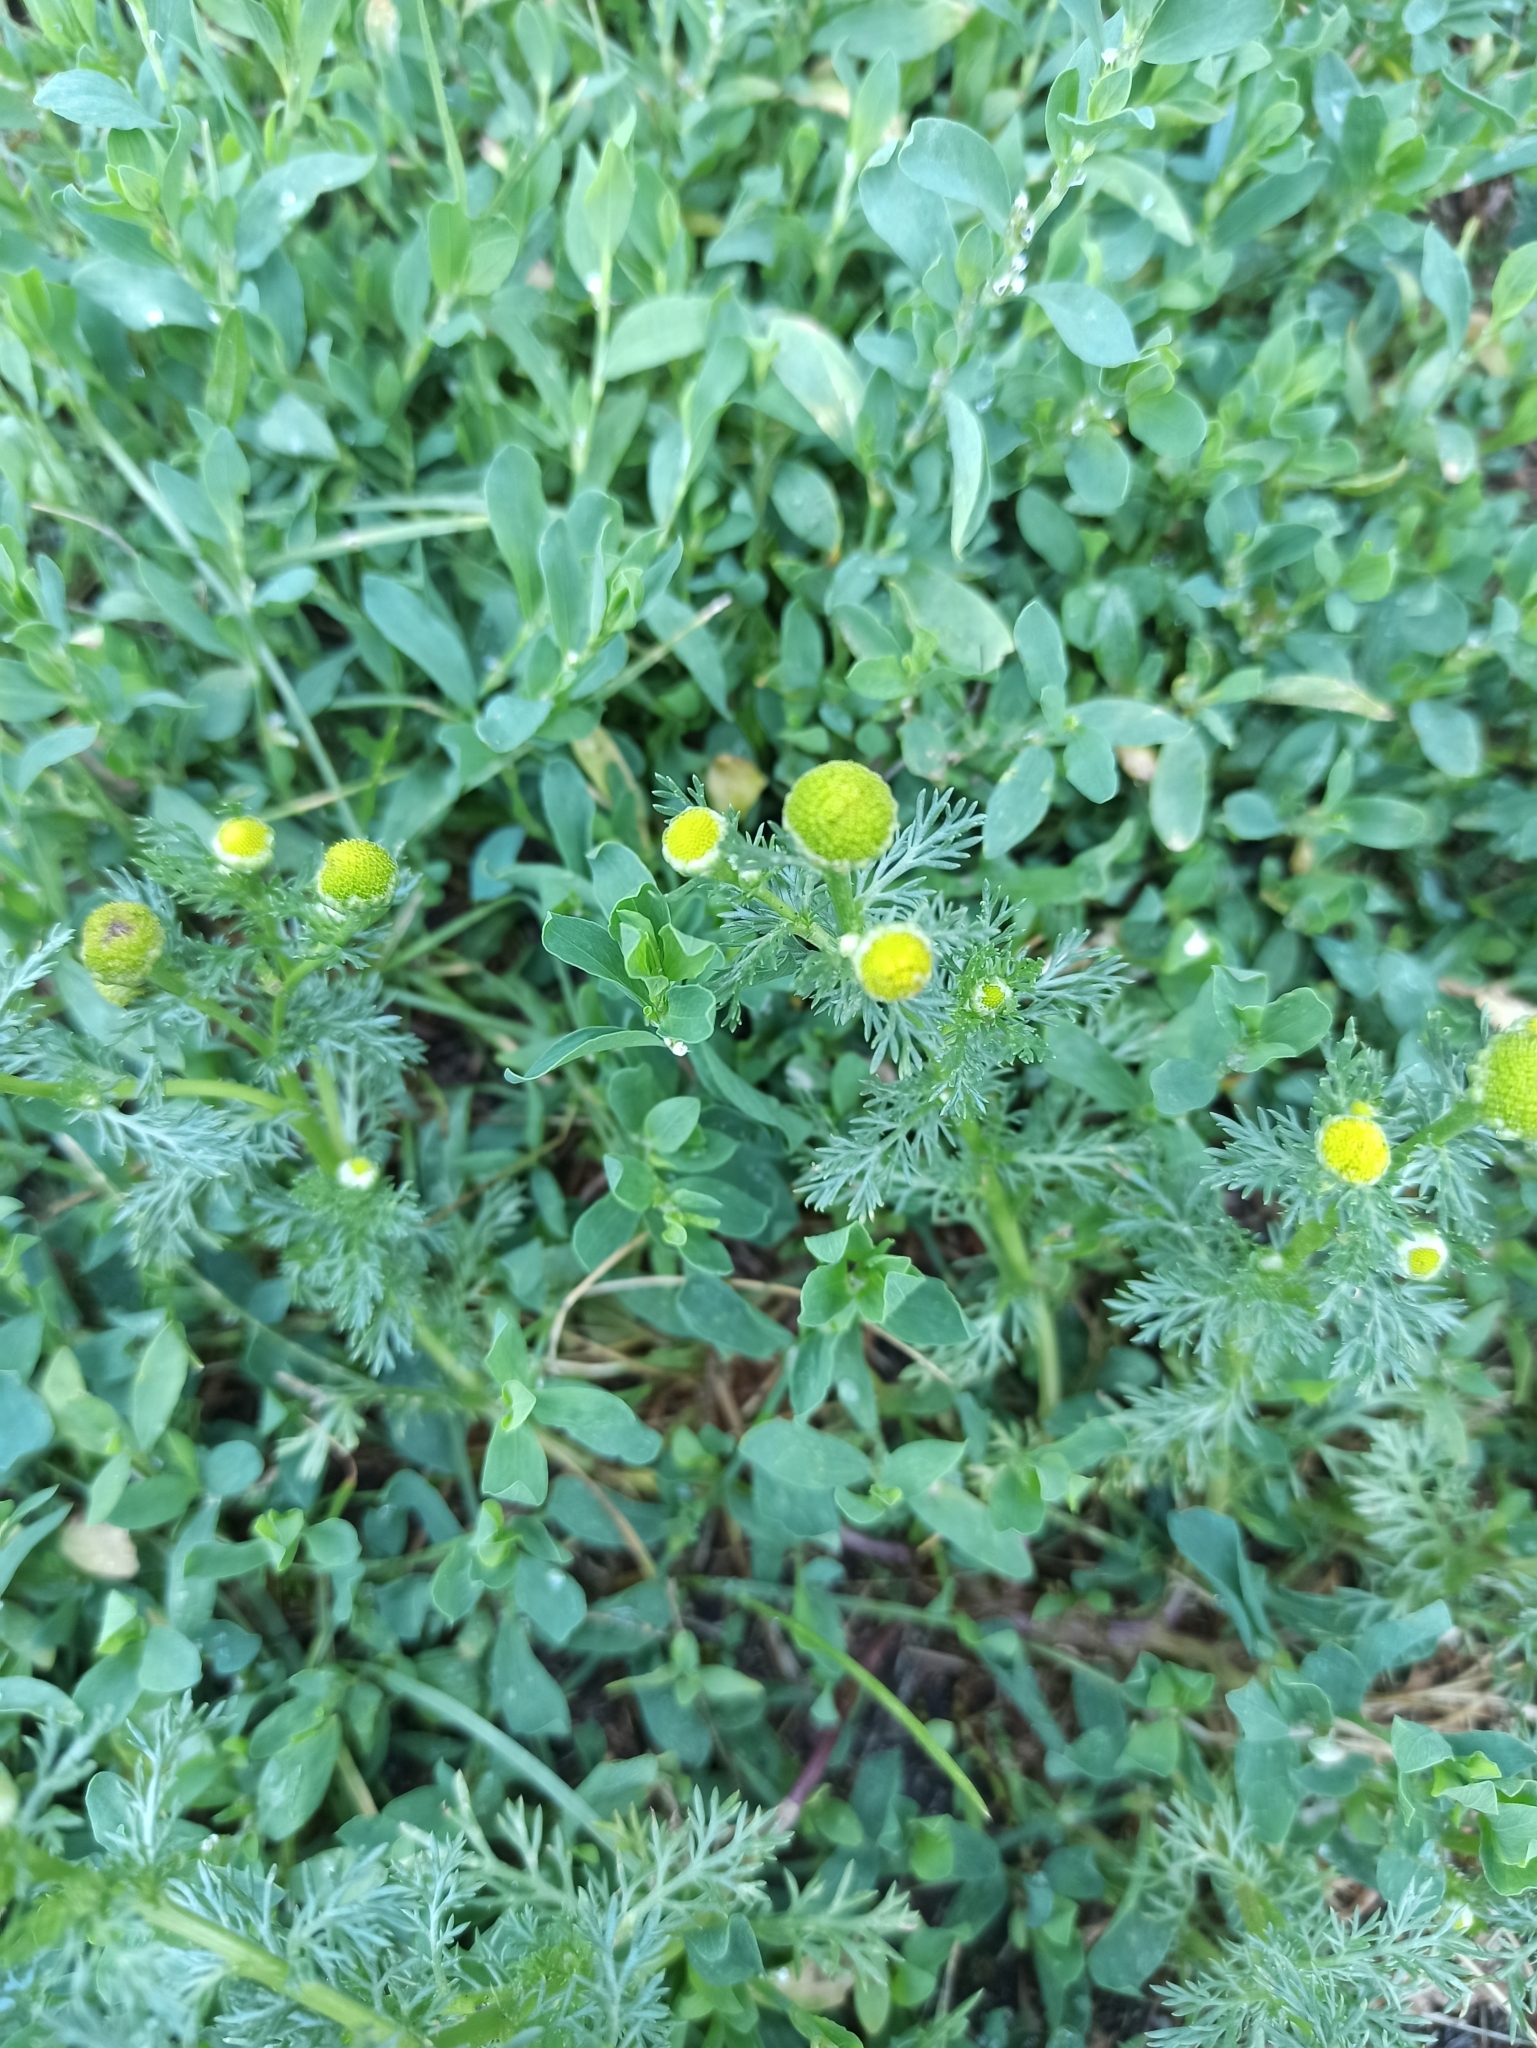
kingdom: Plantae
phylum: Tracheophyta
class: Magnoliopsida
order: Asterales
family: Asteraceae
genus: Matricaria
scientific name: Matricaria discoidea
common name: Disc mayweed
